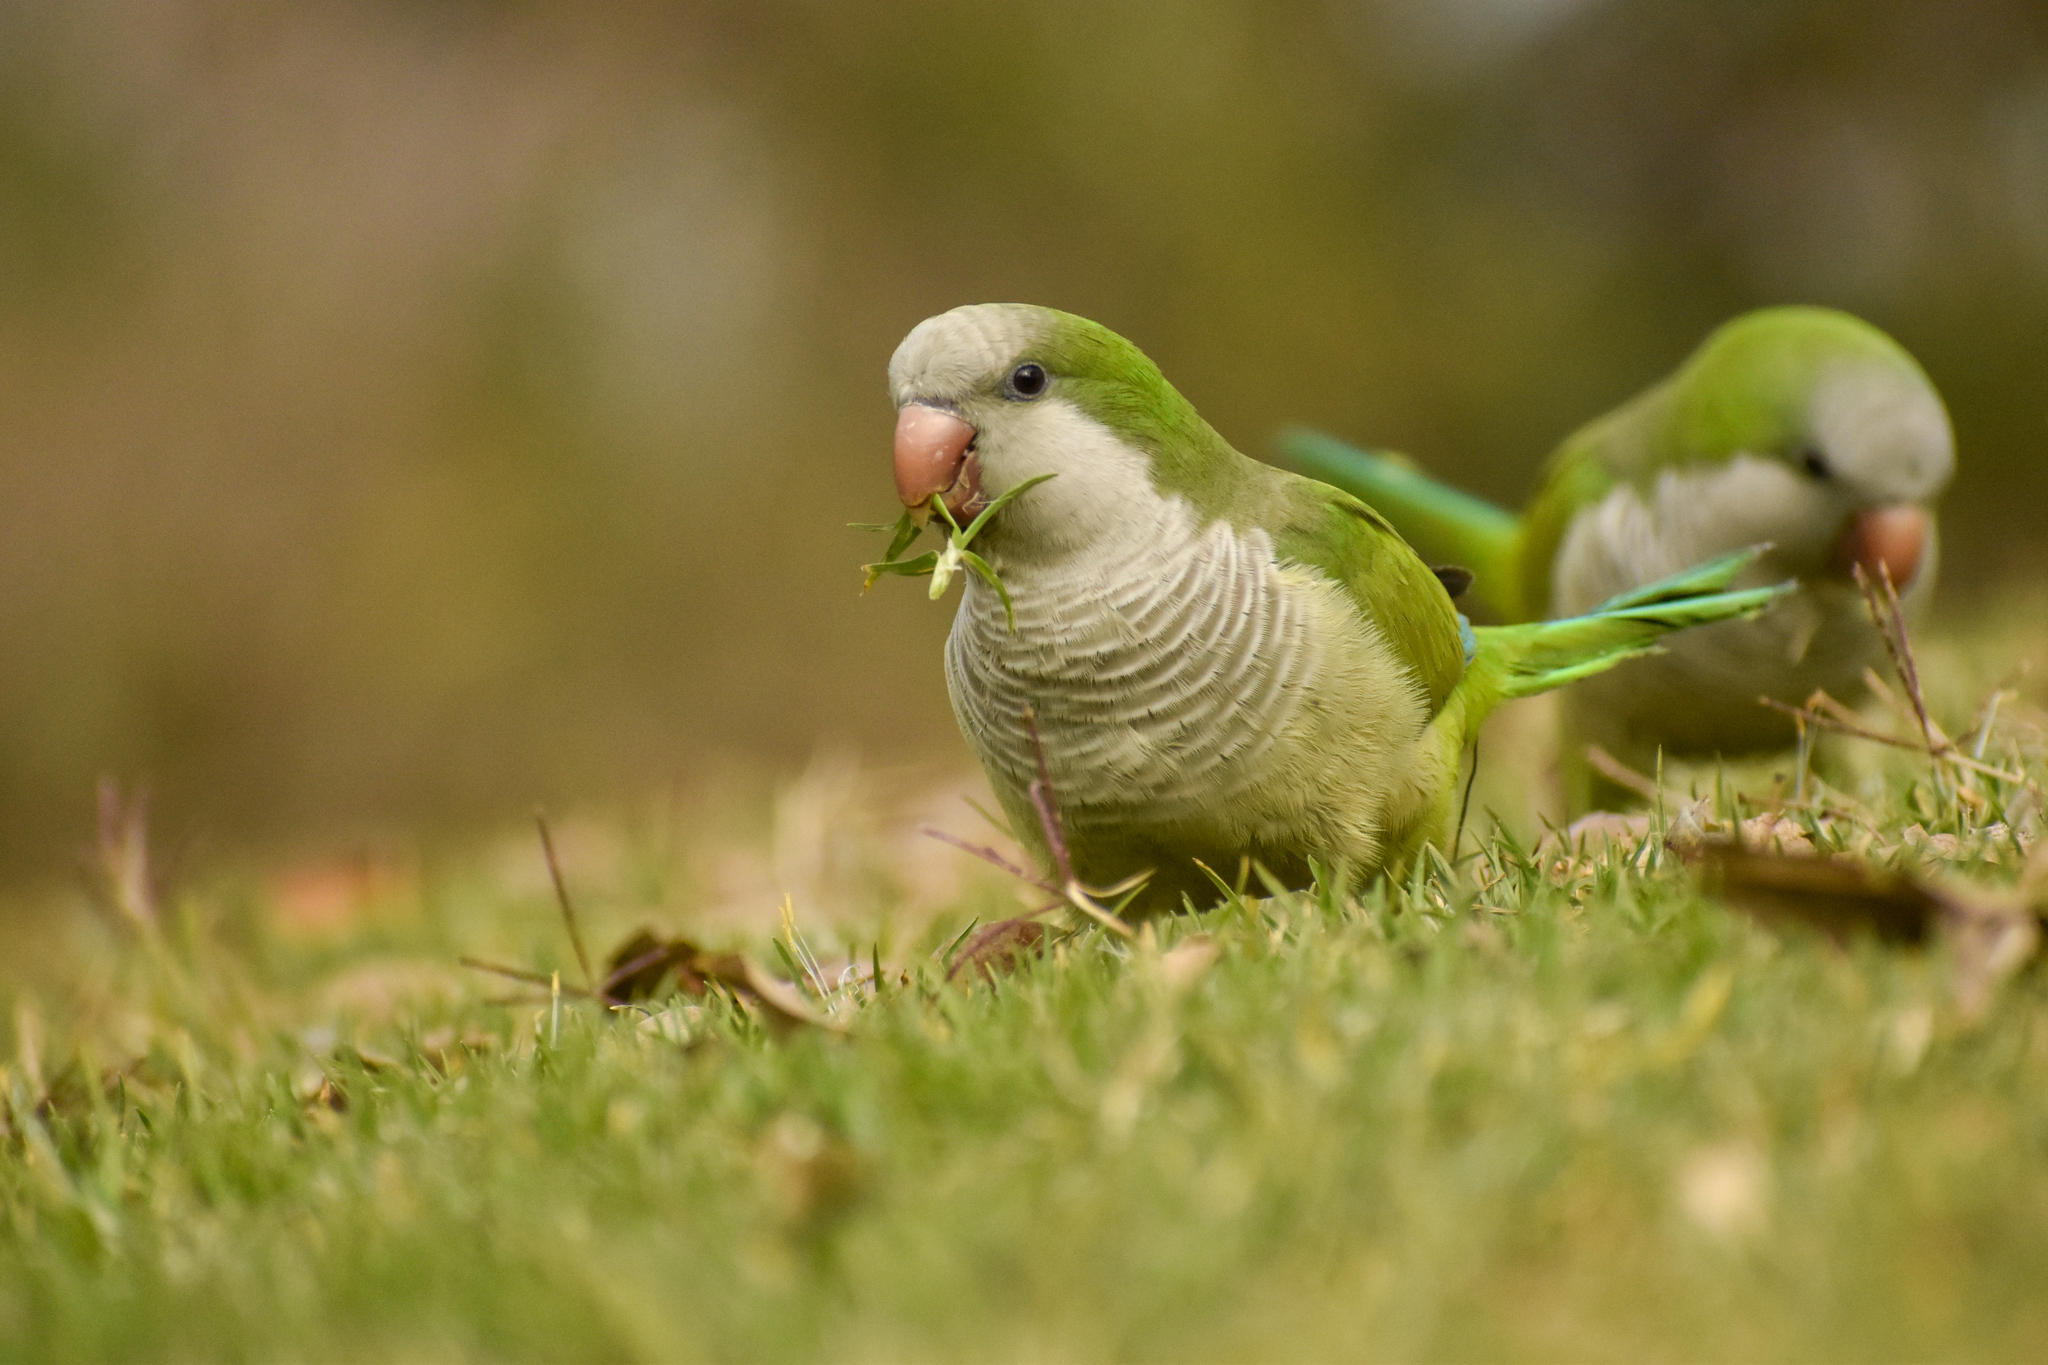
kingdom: Animalia
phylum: Chordata
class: Aves
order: Psittaciformes
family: Psittacidae
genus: Myiopsitta
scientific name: Myiopsitta monachus
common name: Monk parakeet
